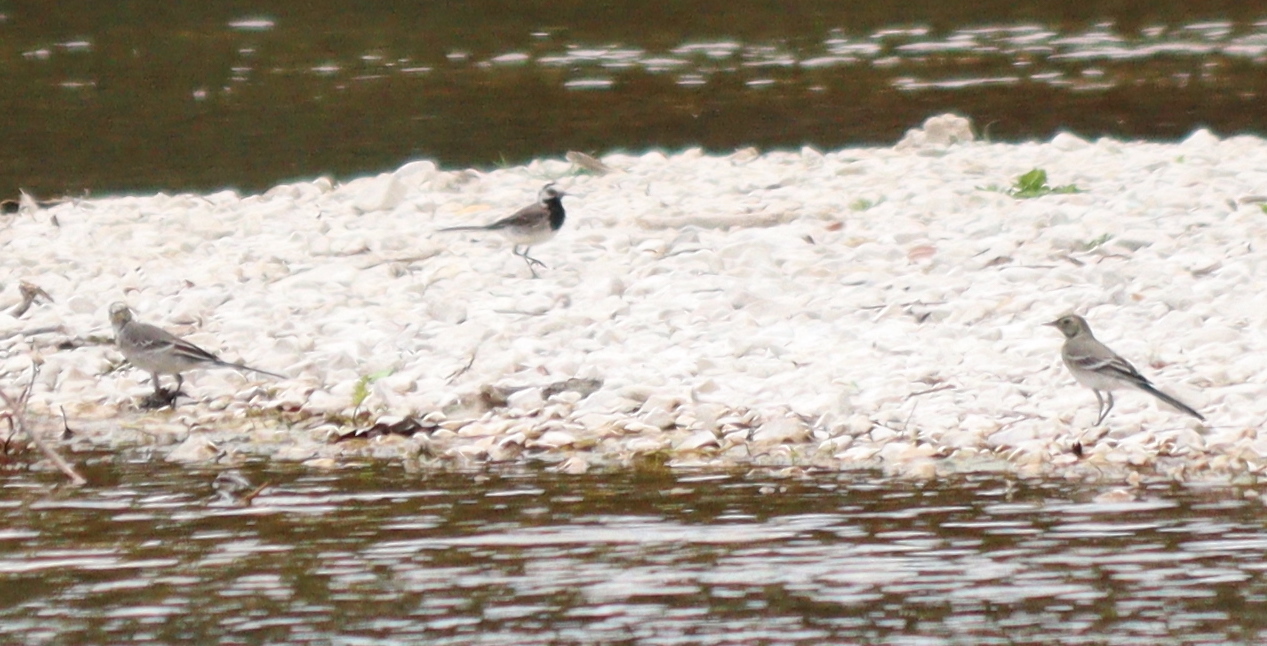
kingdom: Animalia
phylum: Chordata
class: Aves
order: Passeriformes
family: Motacillidae
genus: Motacilla
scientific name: Motacilla alba
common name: White wagtail
